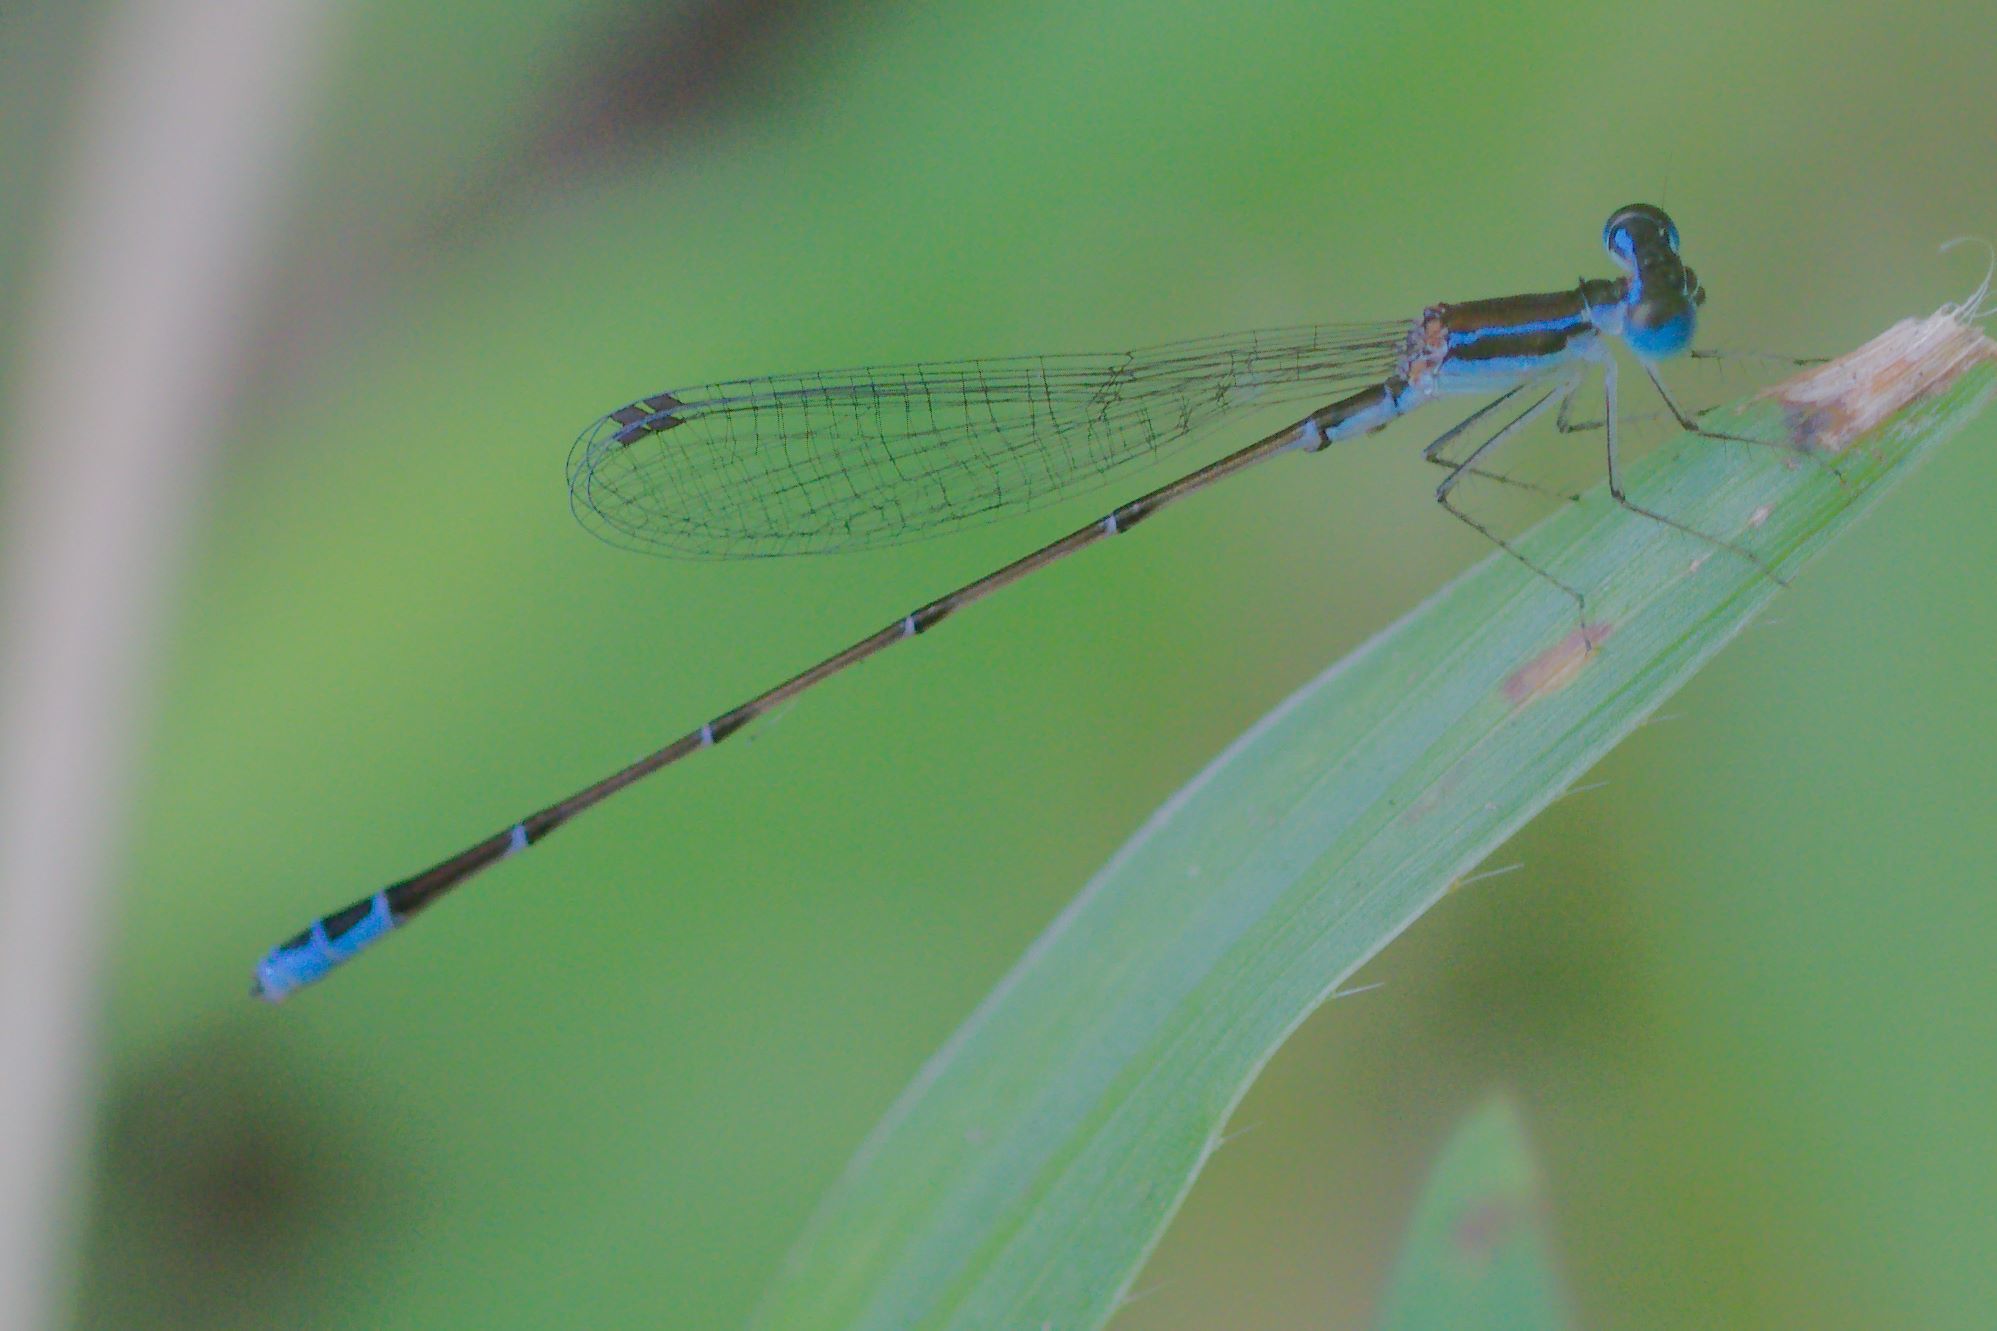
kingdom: Animalia
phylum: Arthropoda
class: Insecta
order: Odonata
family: Coenagrionidae
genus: Nehalennia
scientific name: Nehalennia pallidula
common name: Everglades sprite
